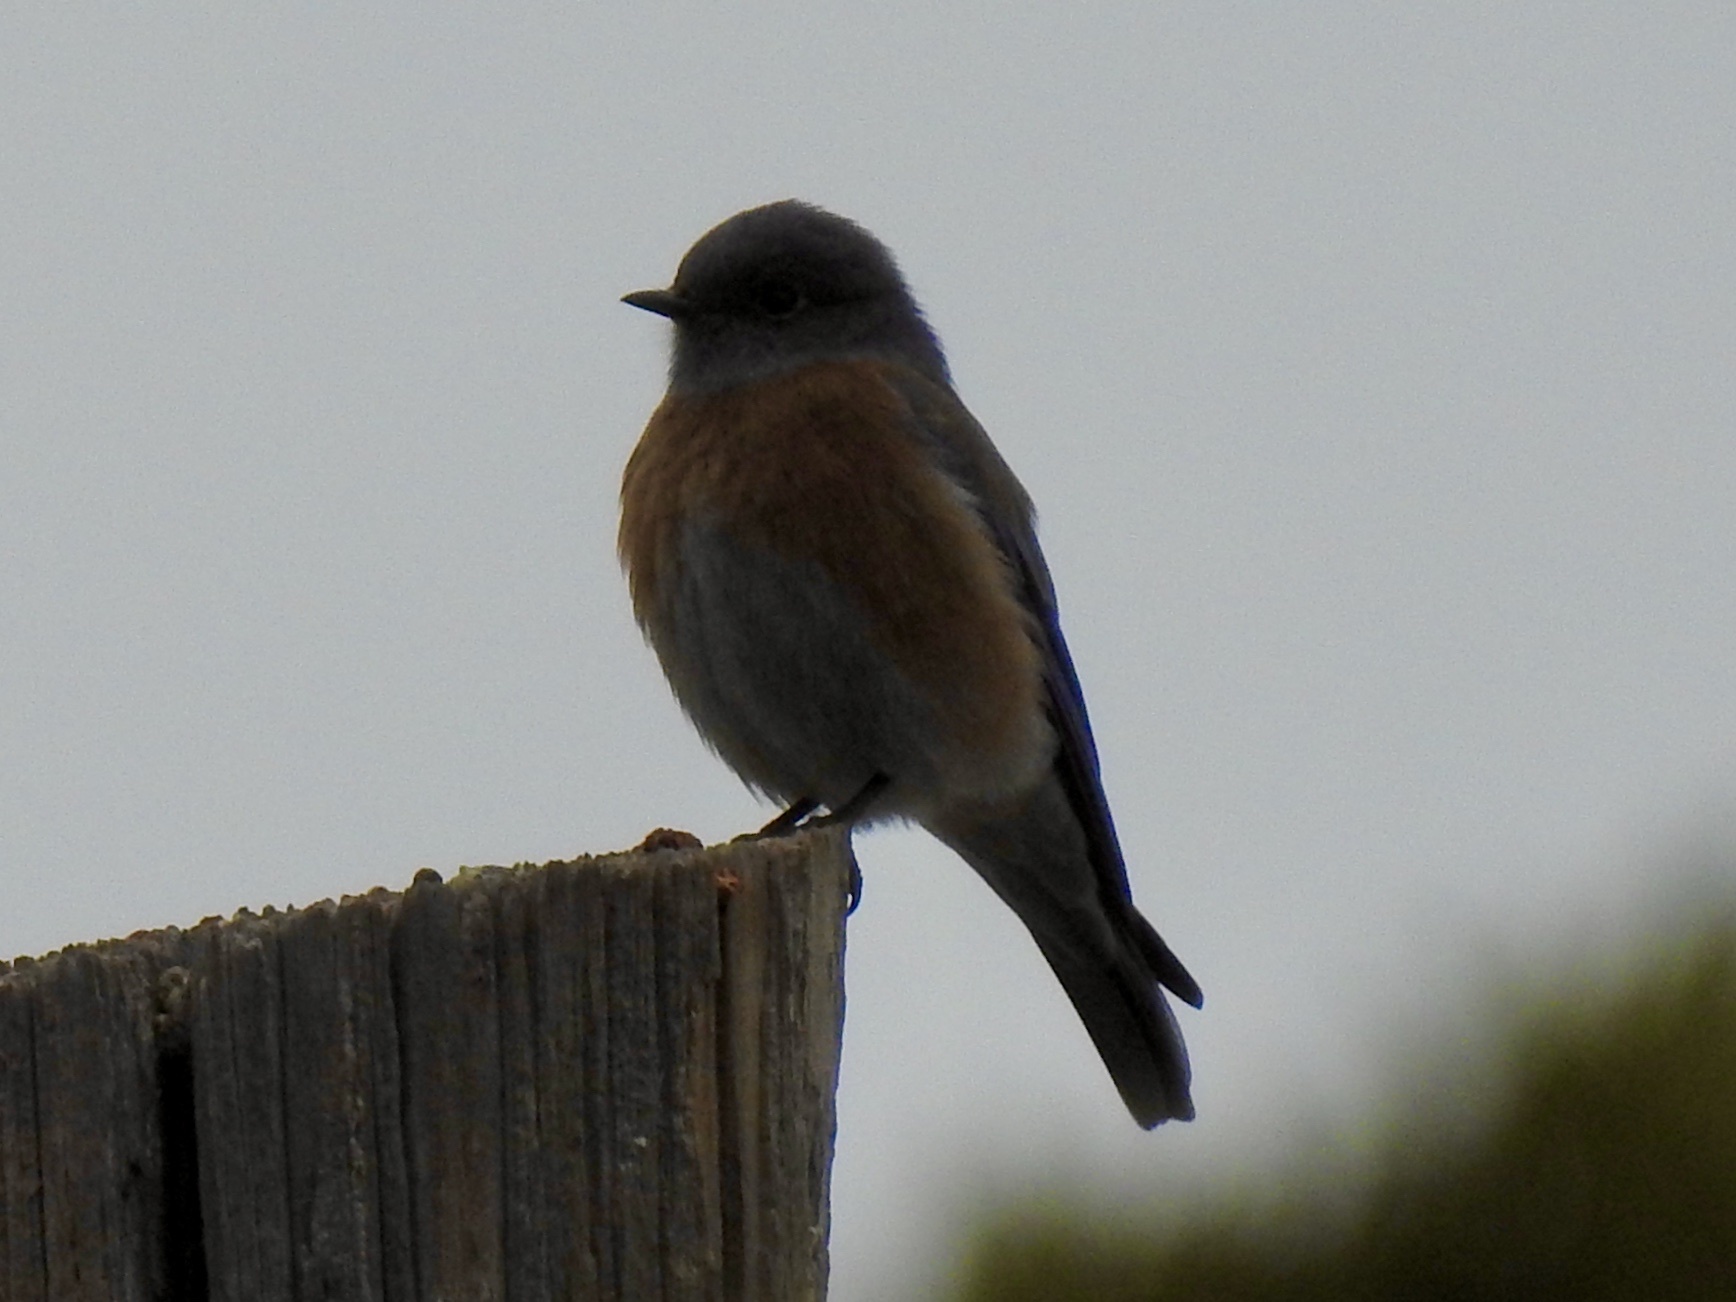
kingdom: Animalia
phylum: Chordata
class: Aves
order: Passeriformes
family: Turdidae
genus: Sialia
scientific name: Sialia mexicana
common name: Western bluebird
